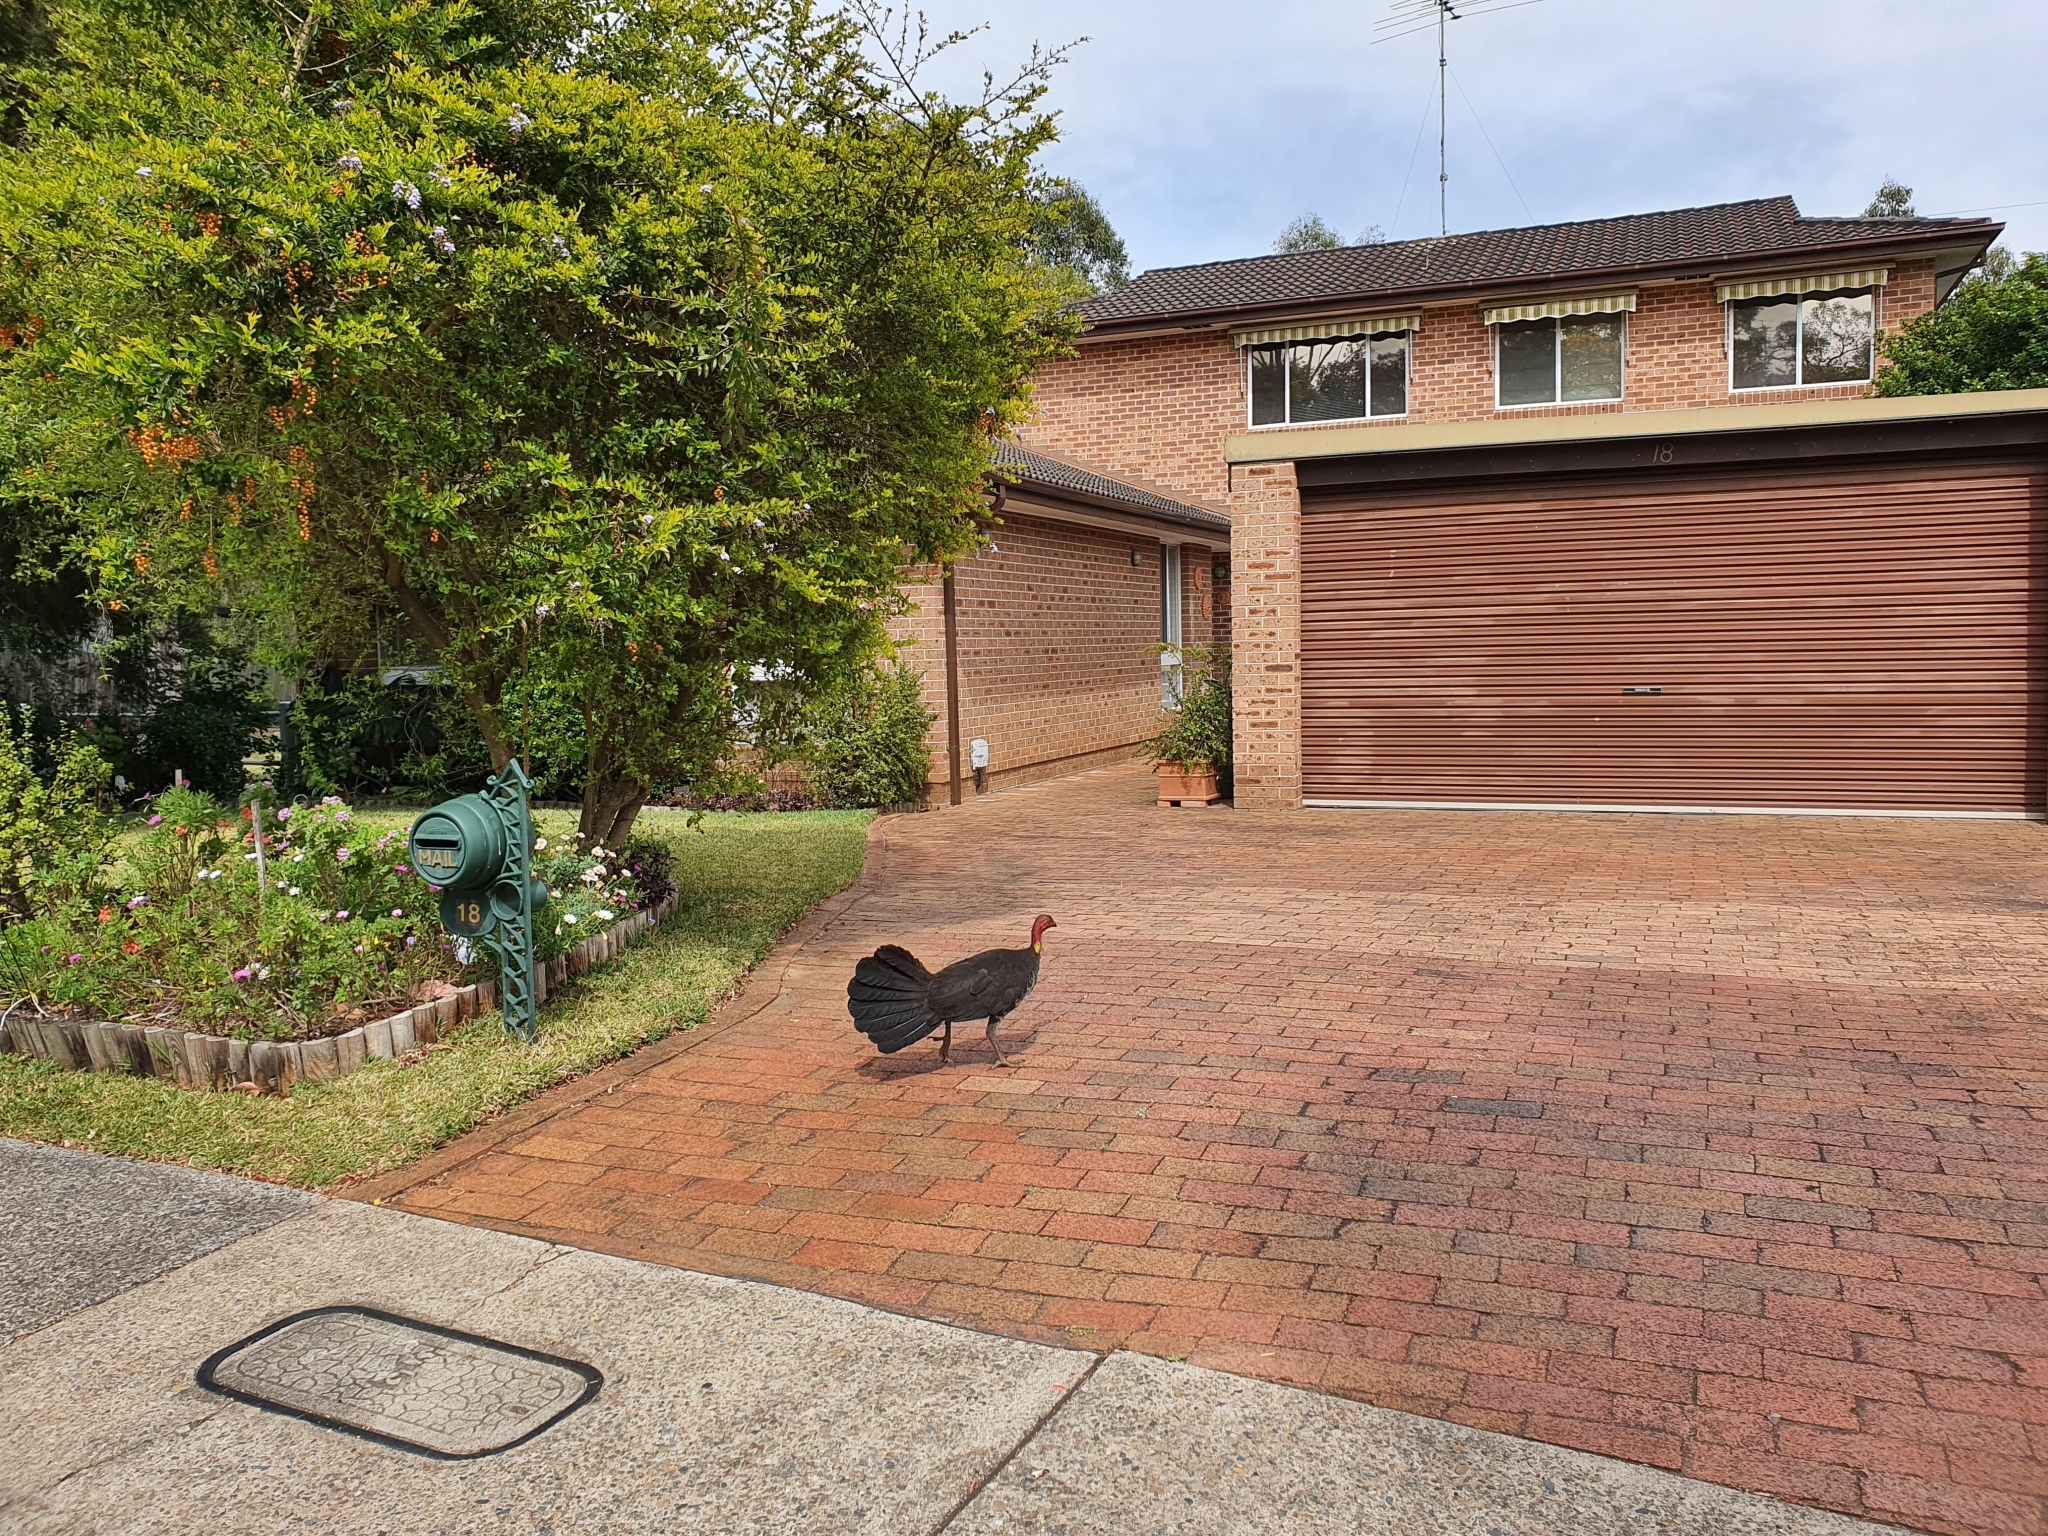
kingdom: Animalia
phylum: Chordata
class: Aves
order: Galliformes
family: Megapodiidae
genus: Alectura
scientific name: Alectura lathami
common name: Australian brushturkey
